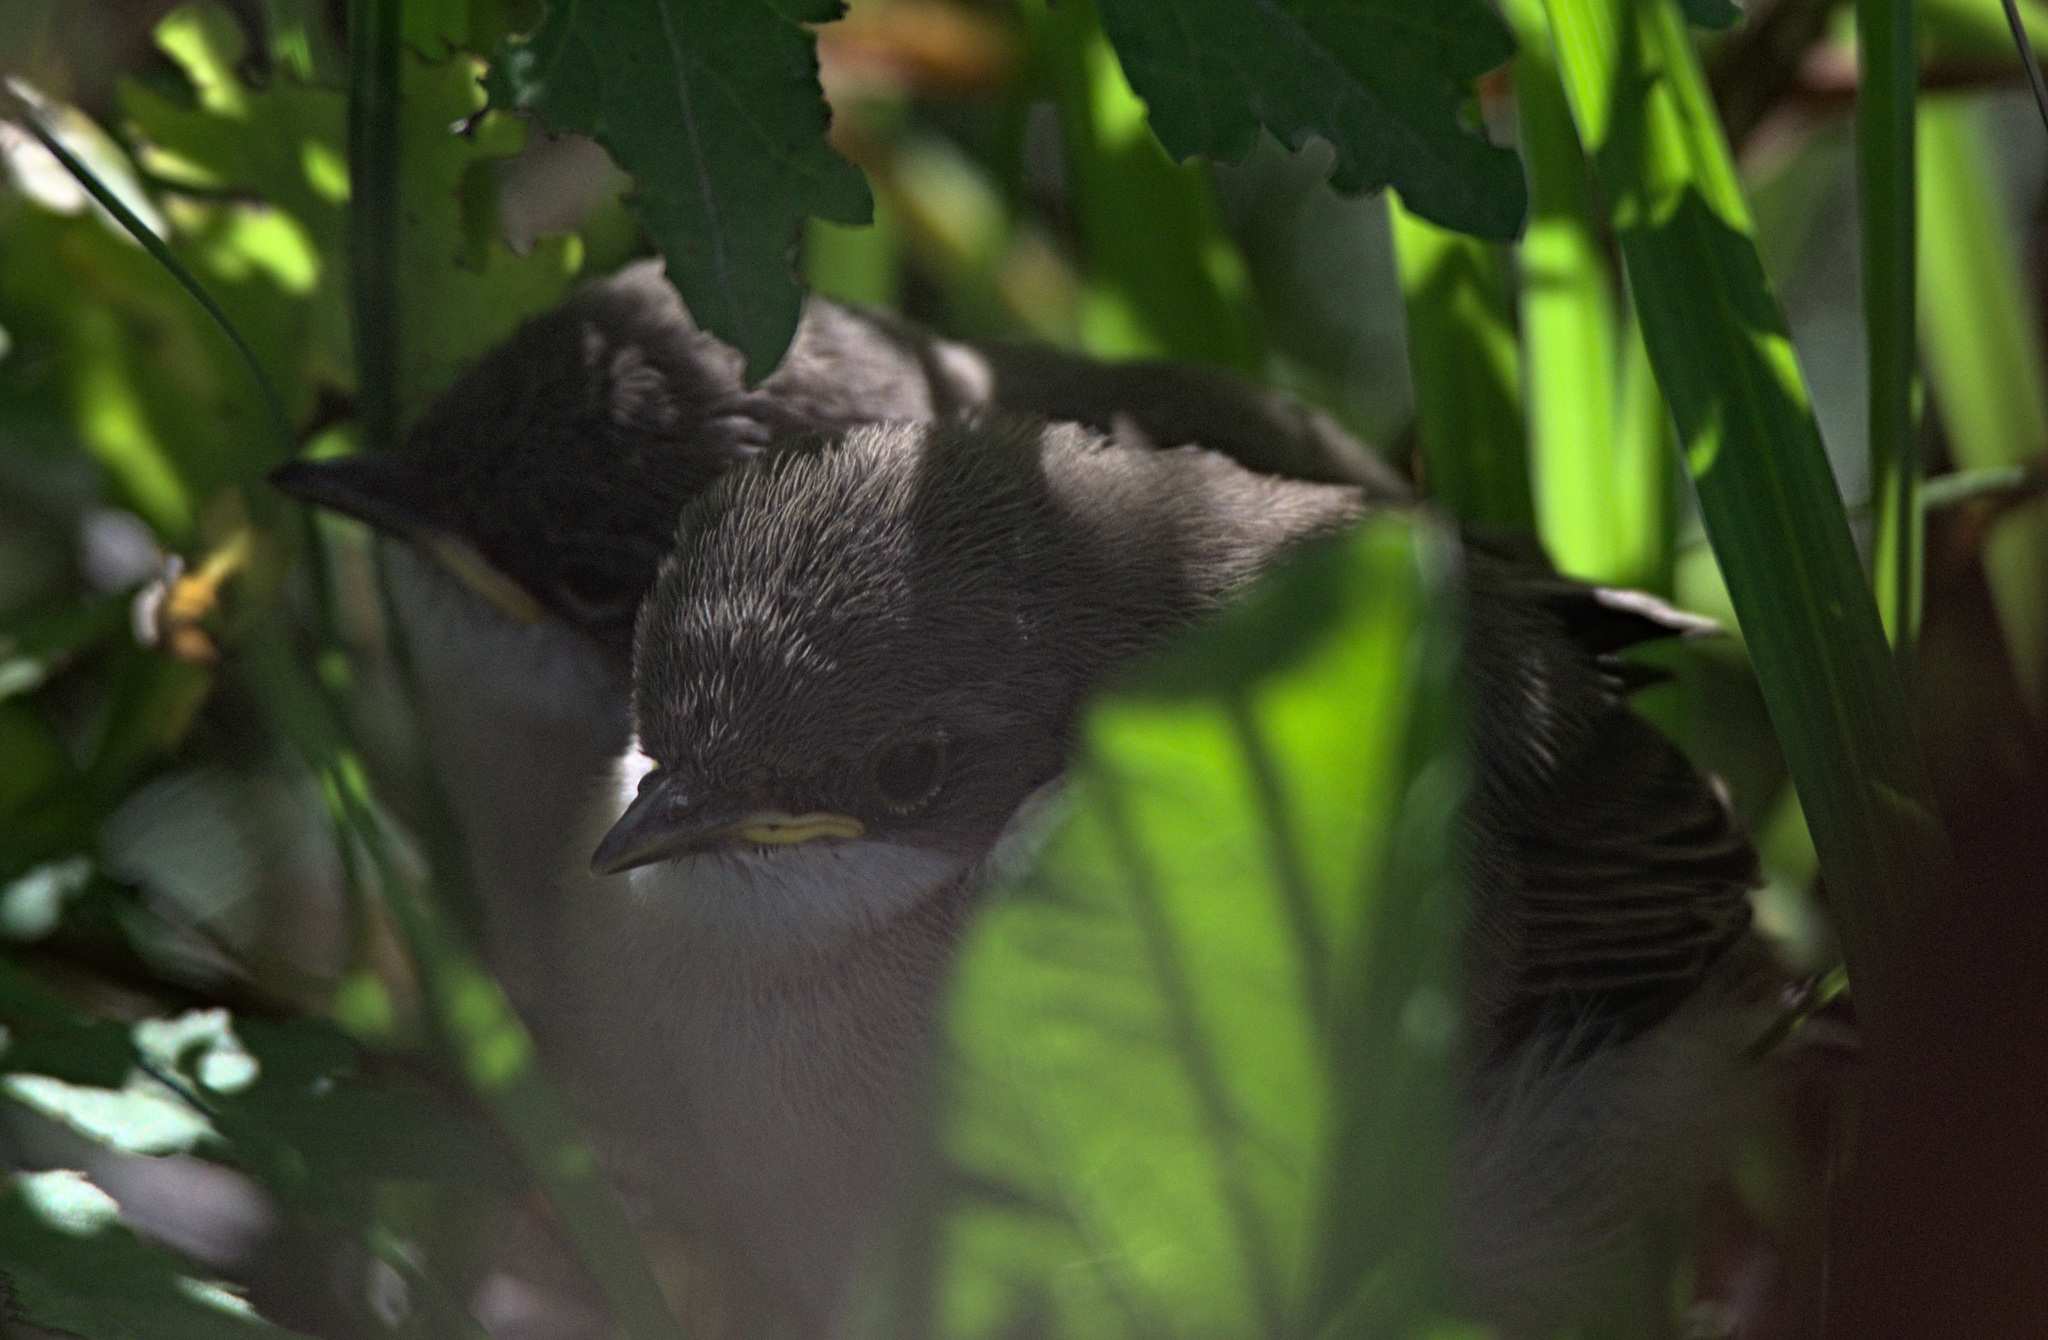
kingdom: Animalia
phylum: Chordata
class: Aves
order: Passeriformes
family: Sylviidae
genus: Sylvia
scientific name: Sylvia curruca
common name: Lesser whitethroat
